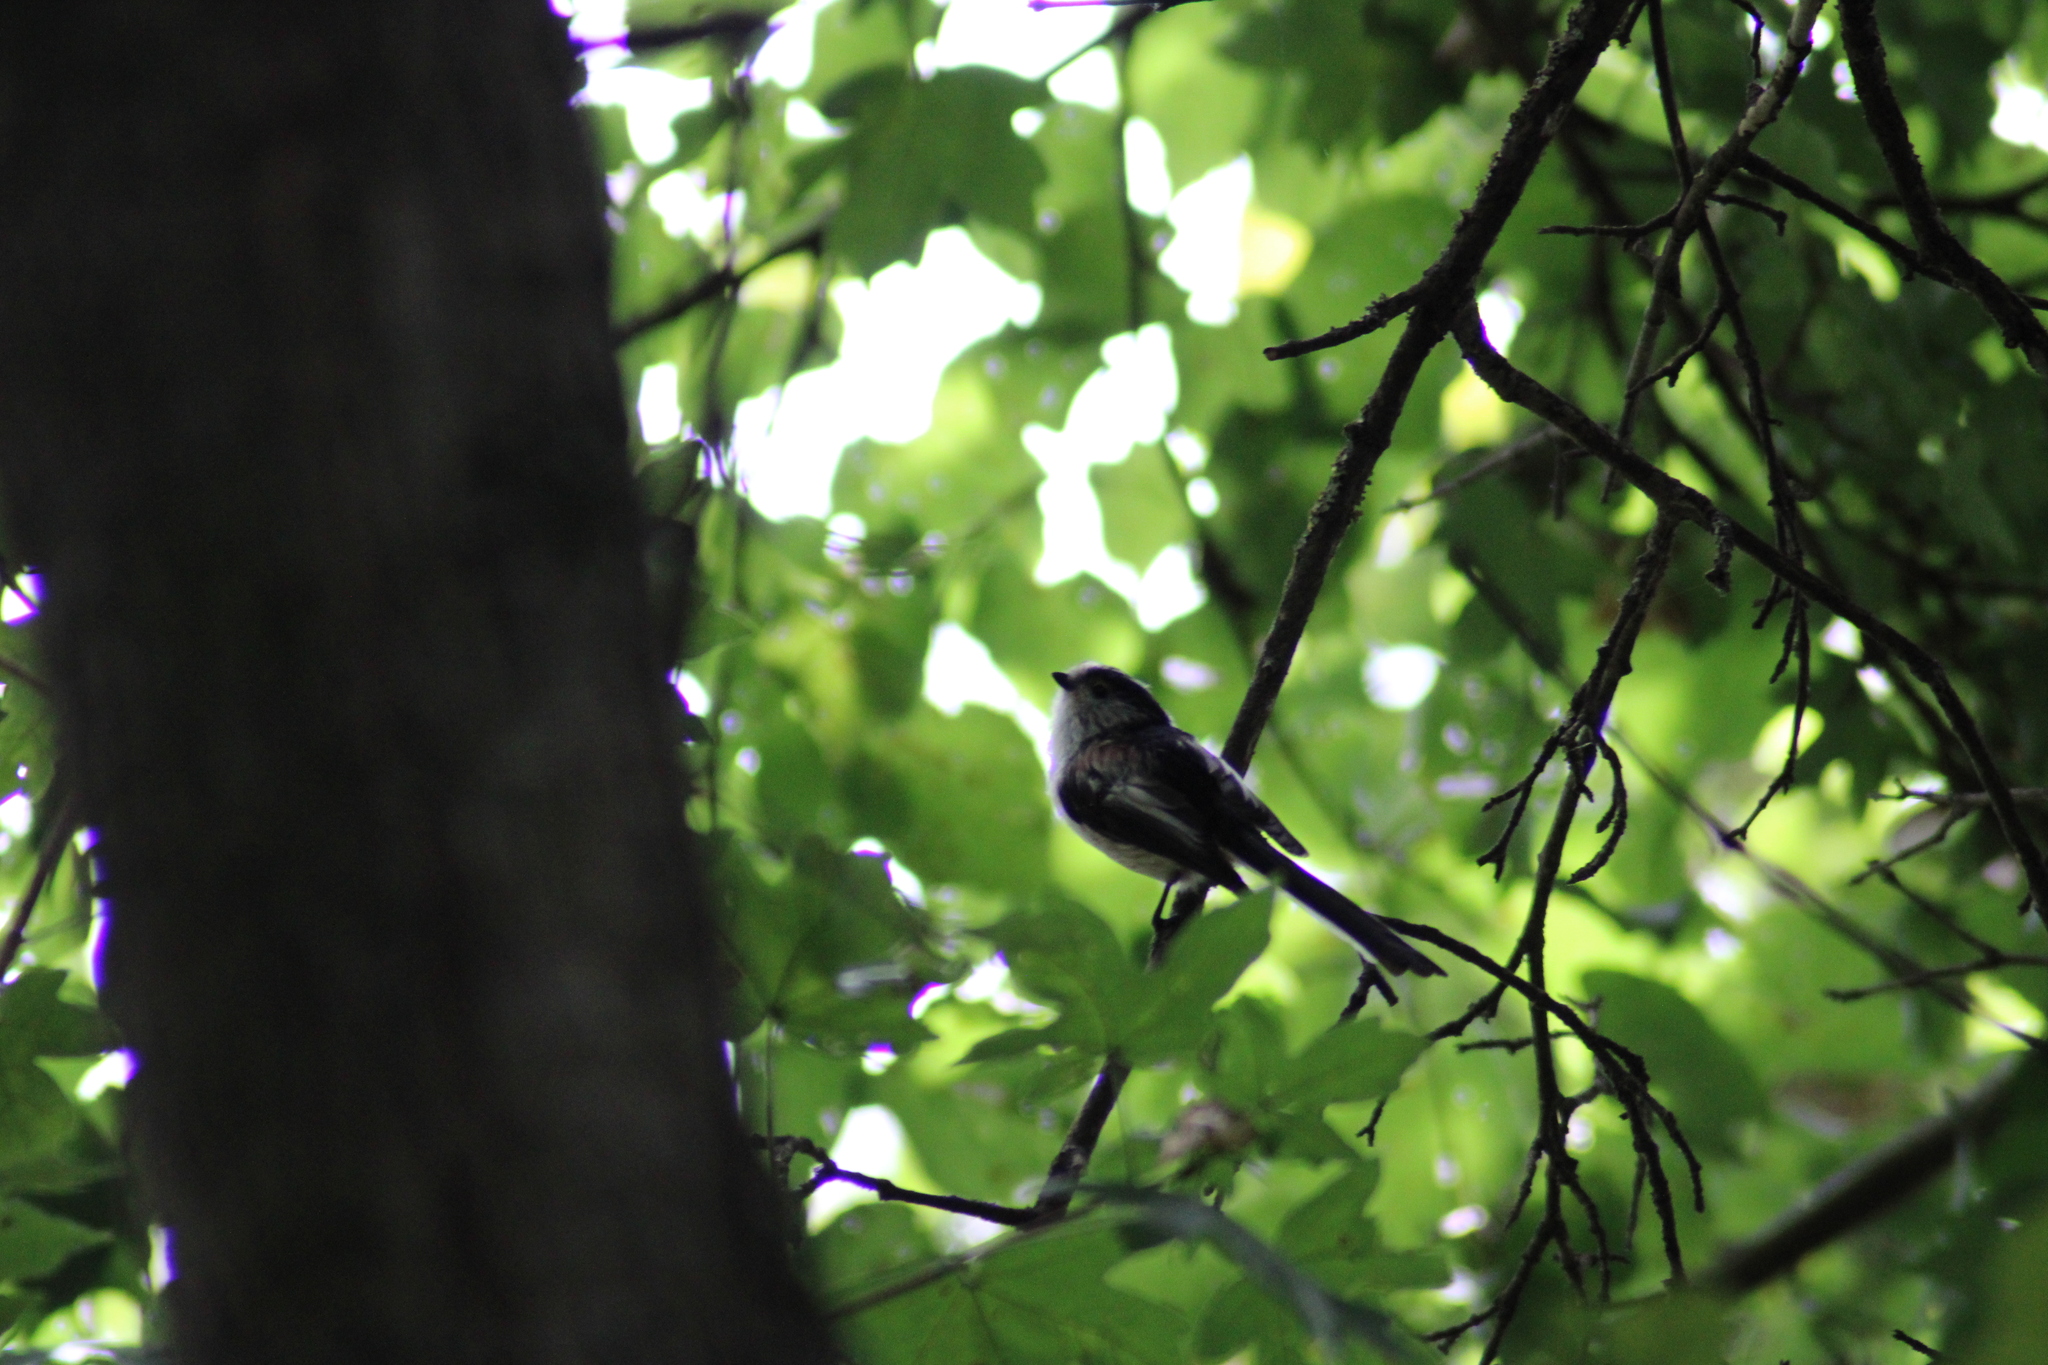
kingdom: Animalia
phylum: Chordata
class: Aves
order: Passeriformes
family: Aegithalidae
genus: Aegithalos
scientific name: Aegithalos caudatus
